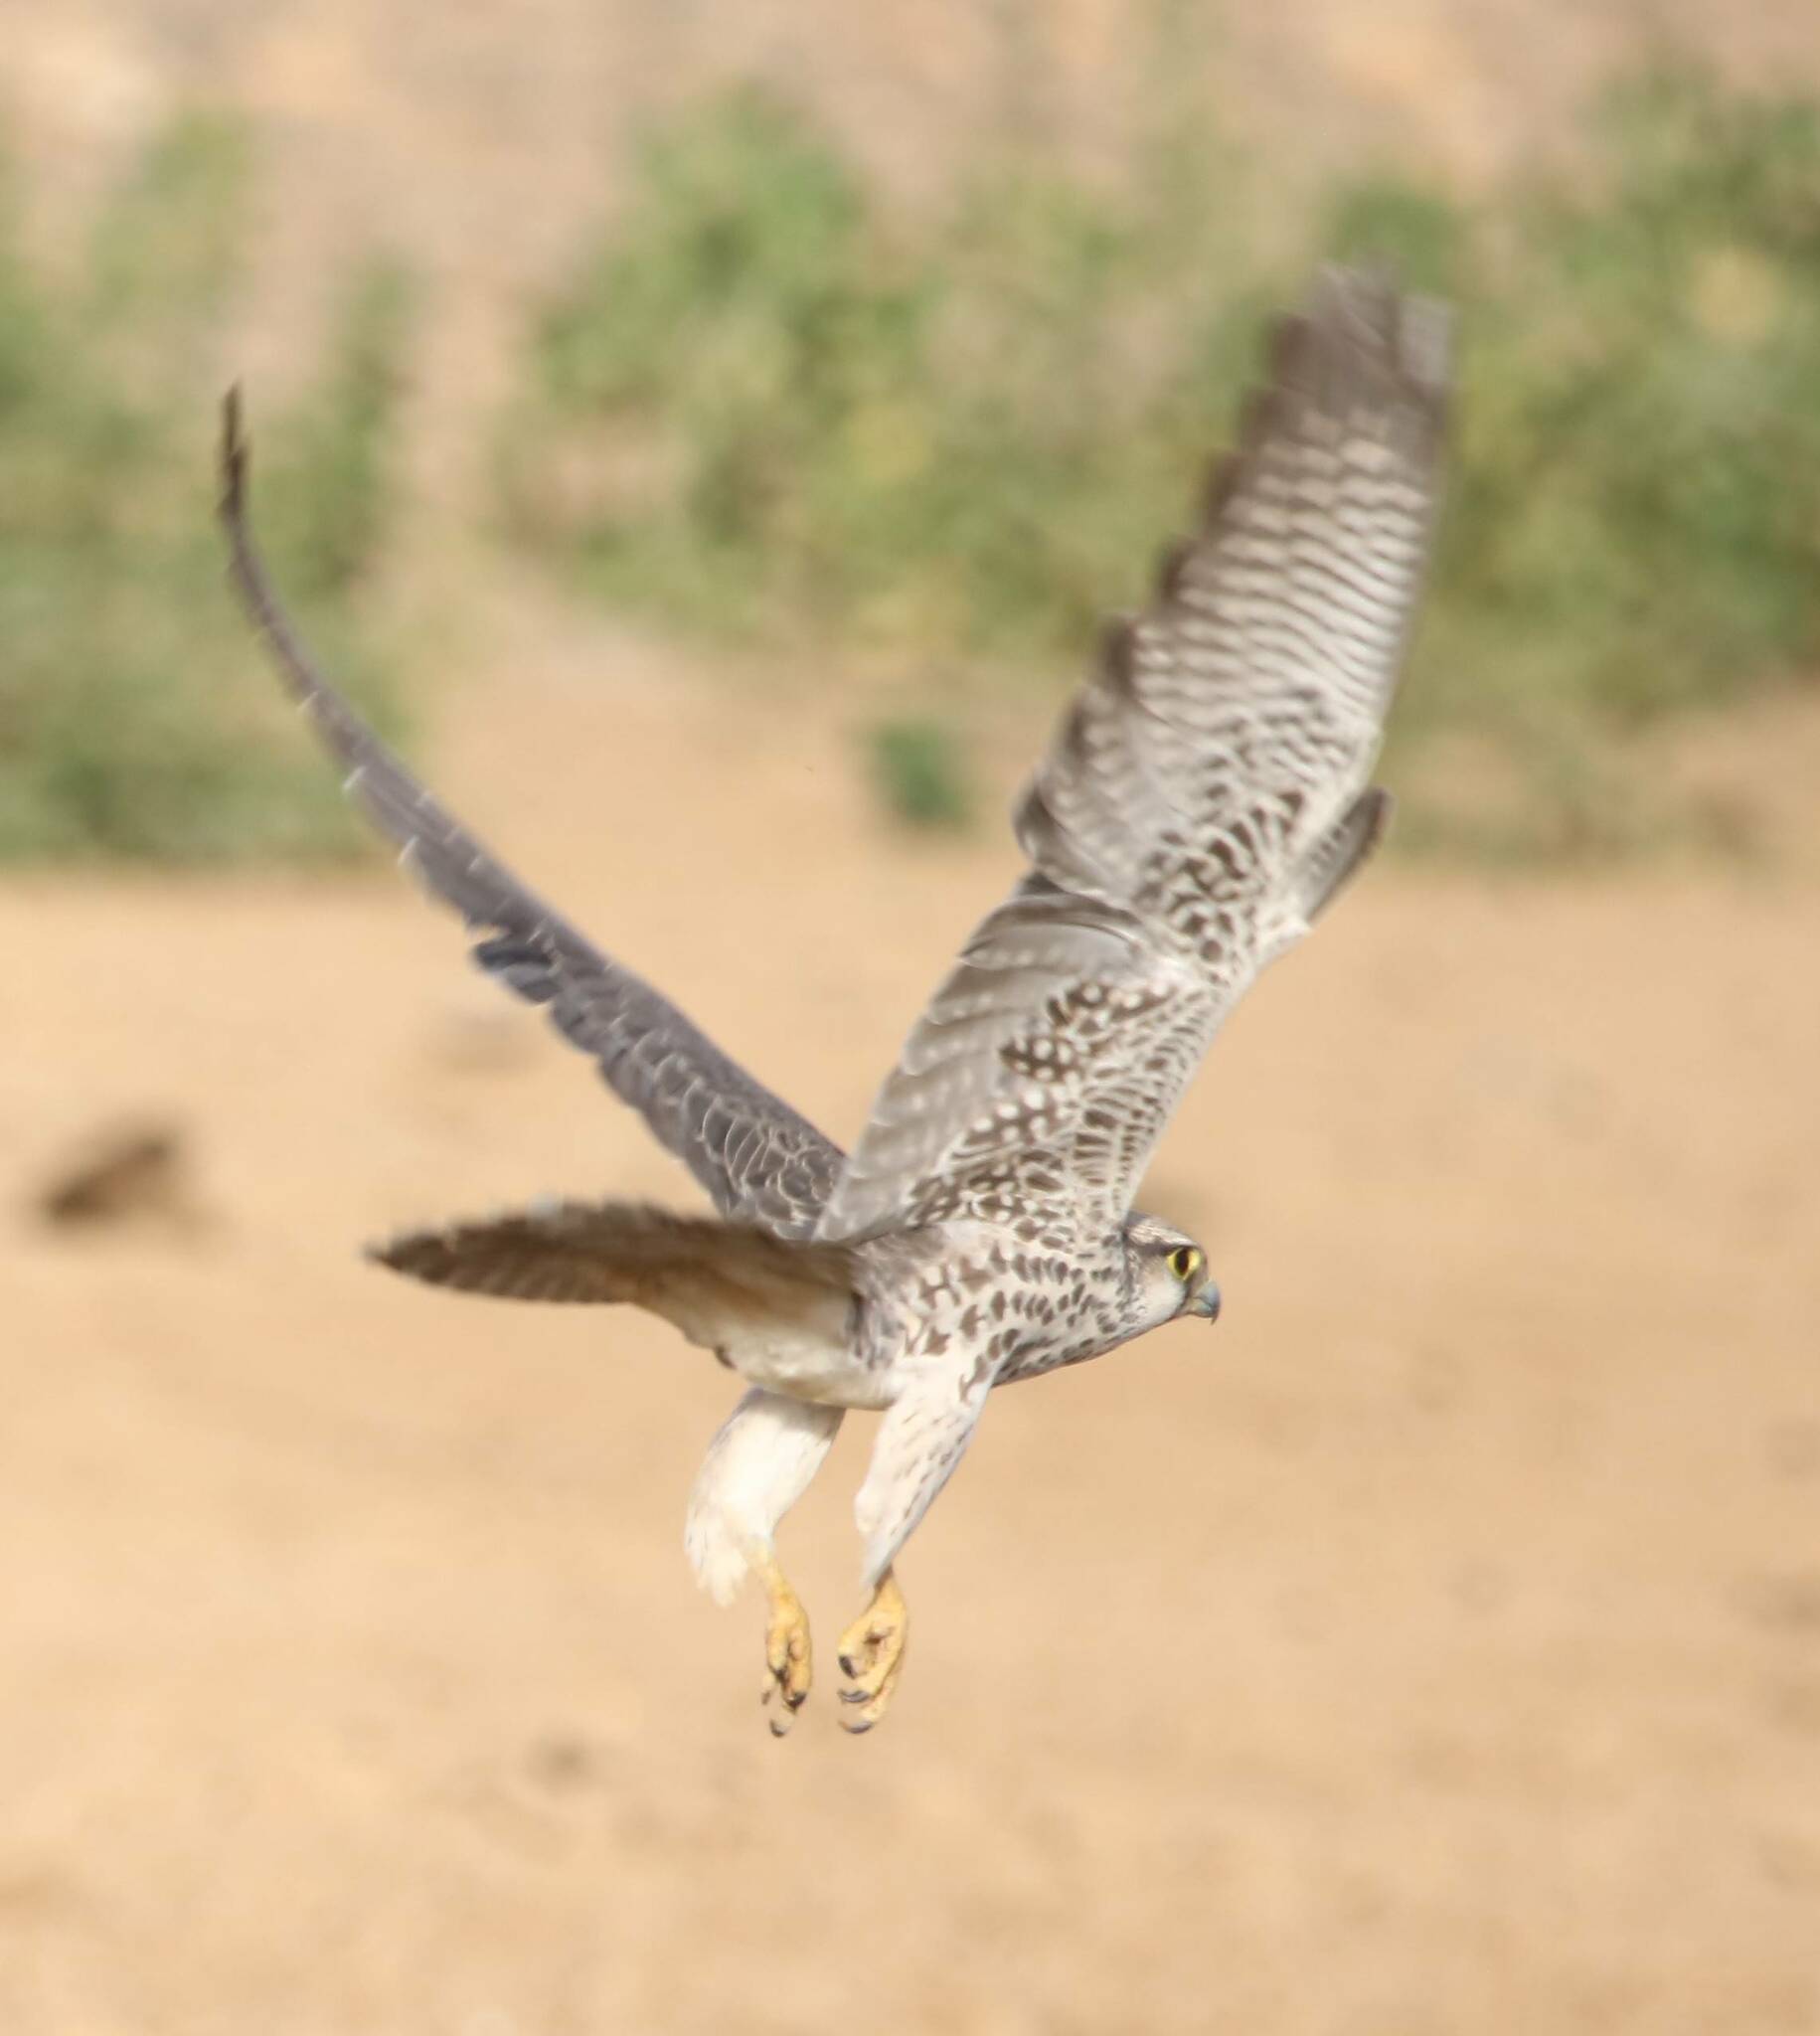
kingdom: Animalia
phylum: Chordata
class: Aves
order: Falconiformes
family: Falconidae
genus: Falco
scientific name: Falco biarmicus
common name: Lanner falcon
